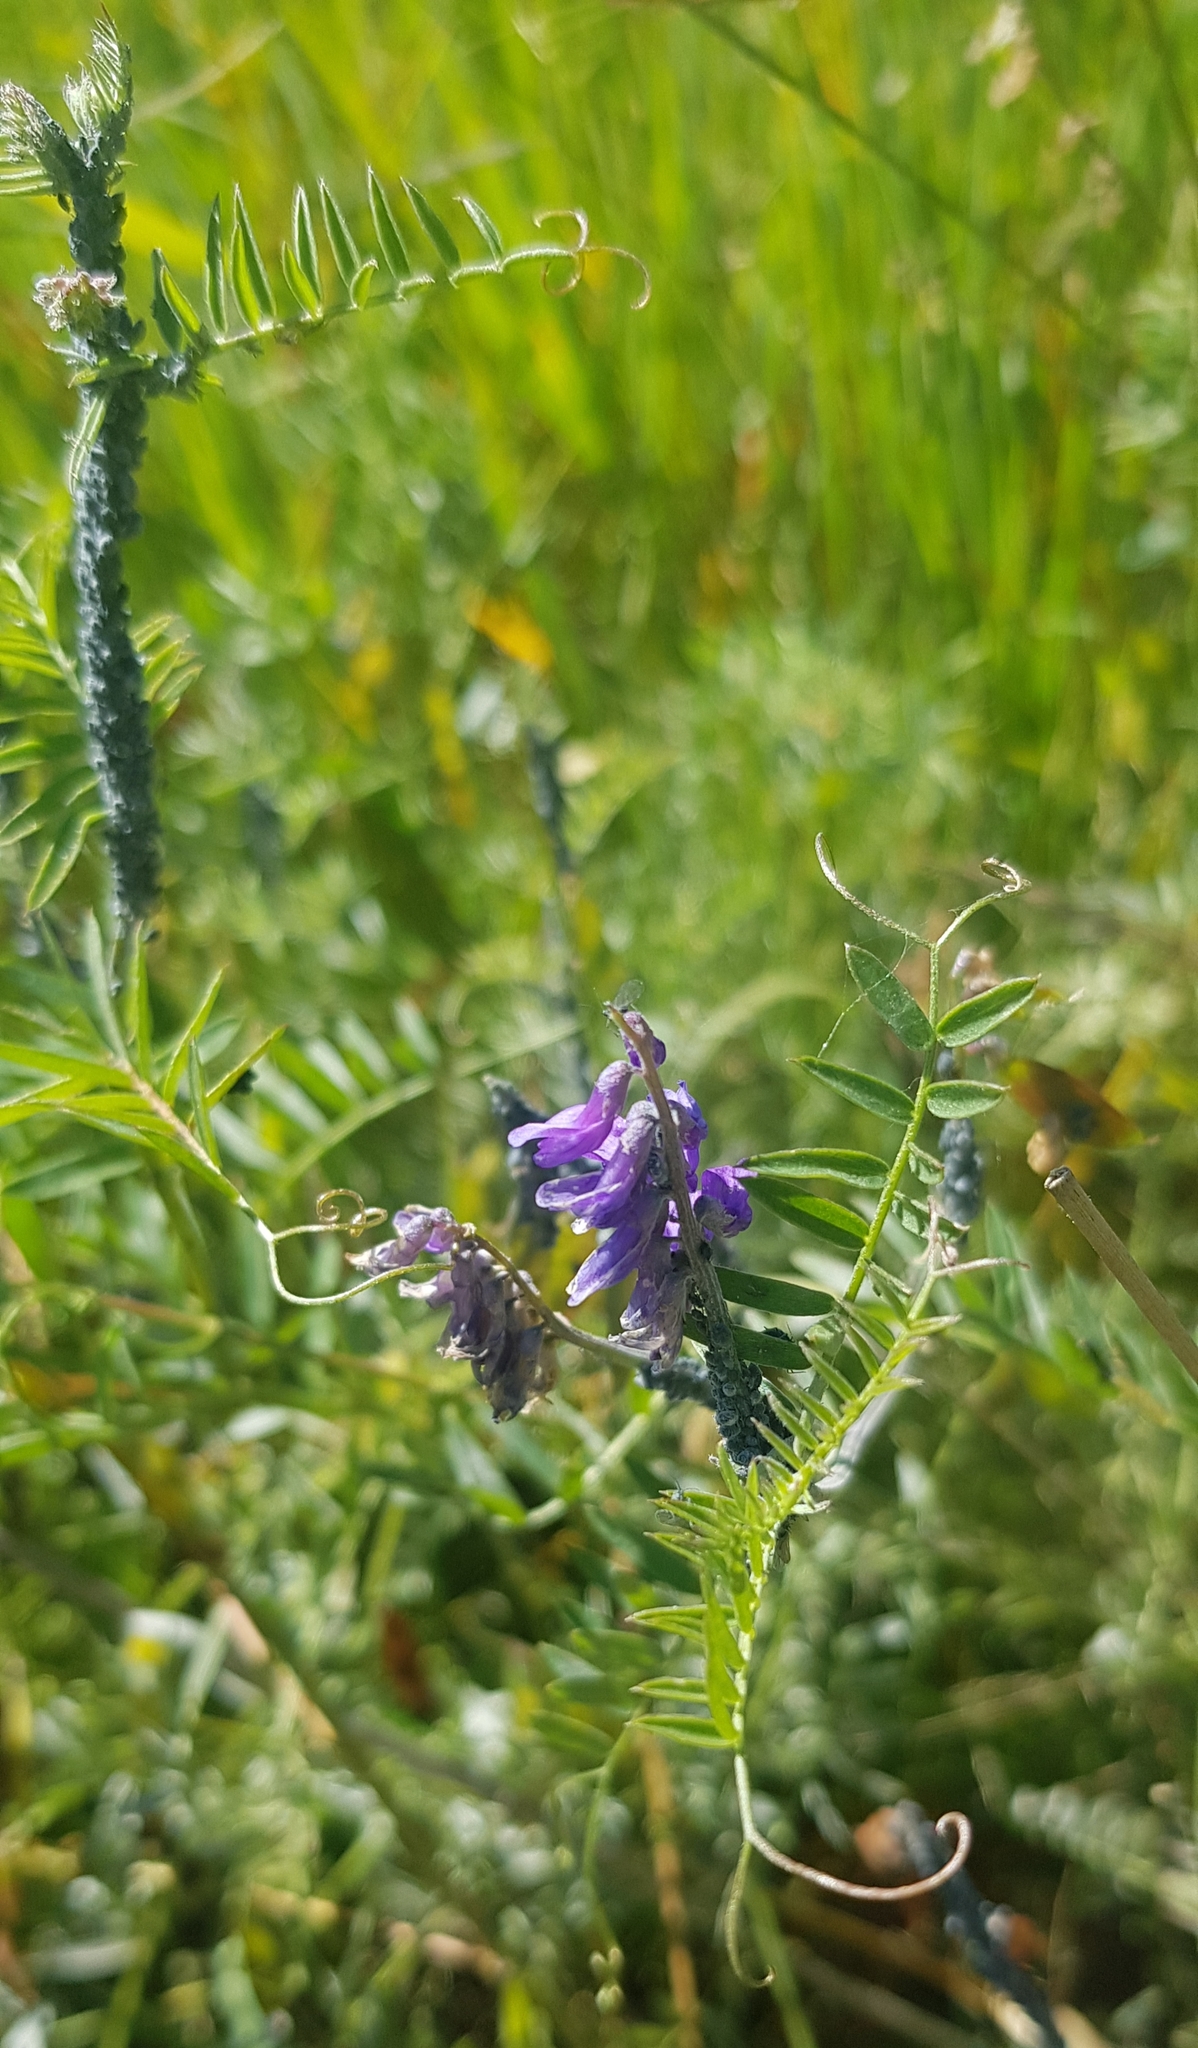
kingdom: Plantae
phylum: Tracheophyta
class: Magnoliopsida
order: Fabales
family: Fabaceae
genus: Vicia
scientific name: Vicia cracca
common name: Bird vetch
